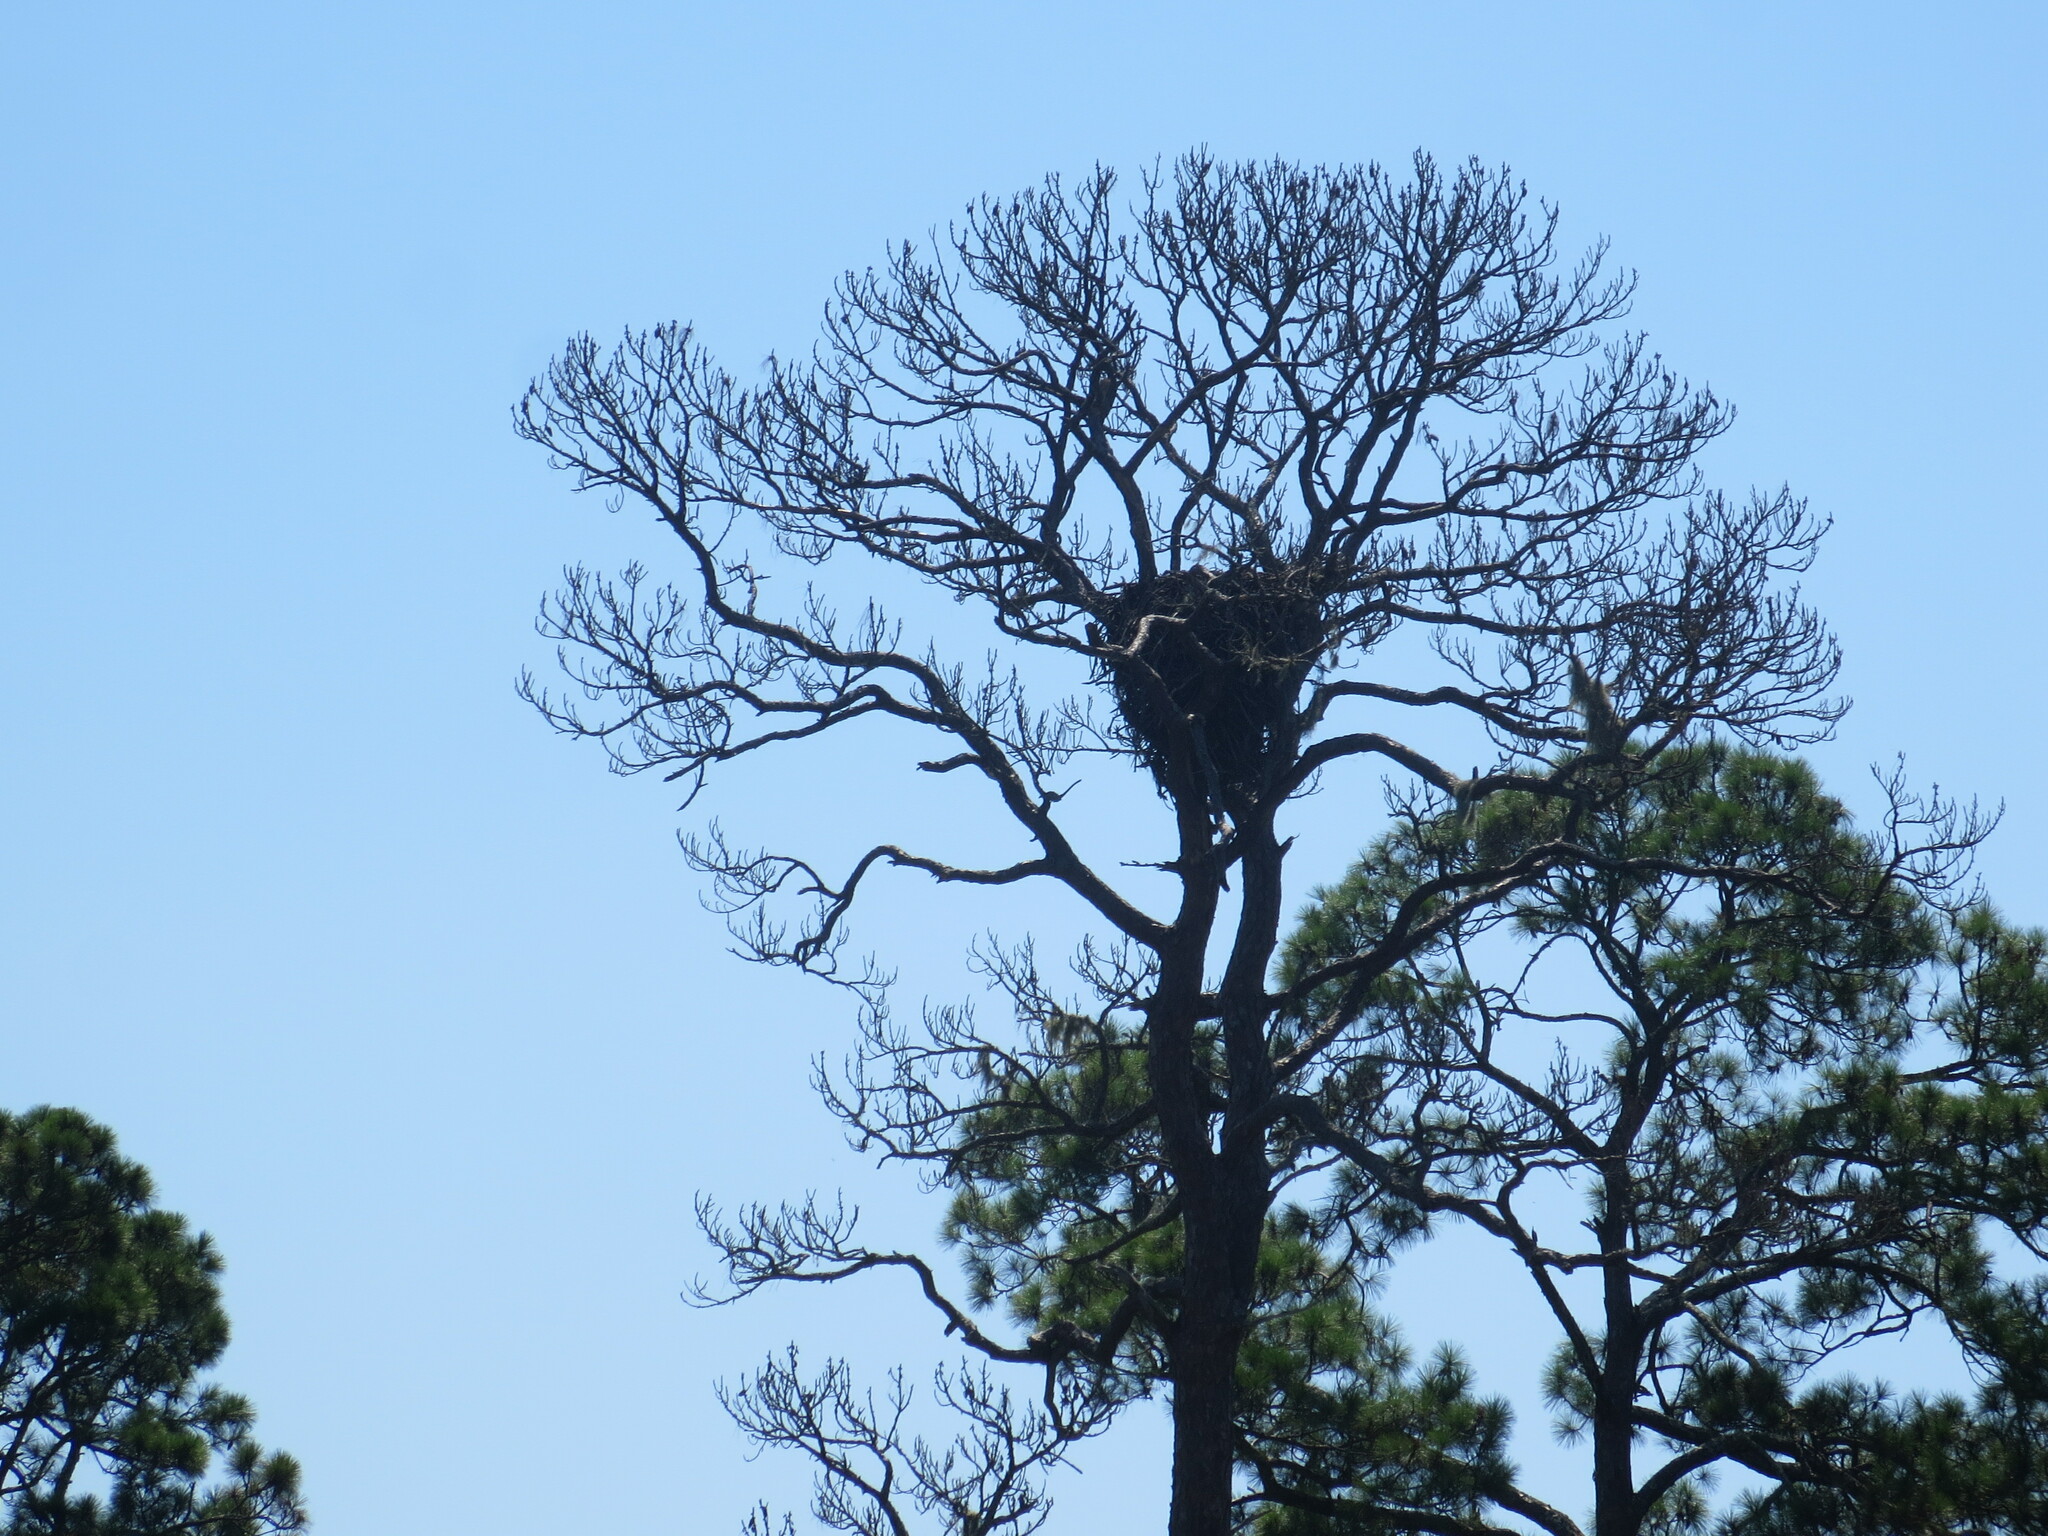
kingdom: Animalia
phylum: Chordata
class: Aves
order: Accipitriformes
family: Accipitridae
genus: Haliaeetus
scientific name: Haliaeetus leucocephalus
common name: Bald eagle
